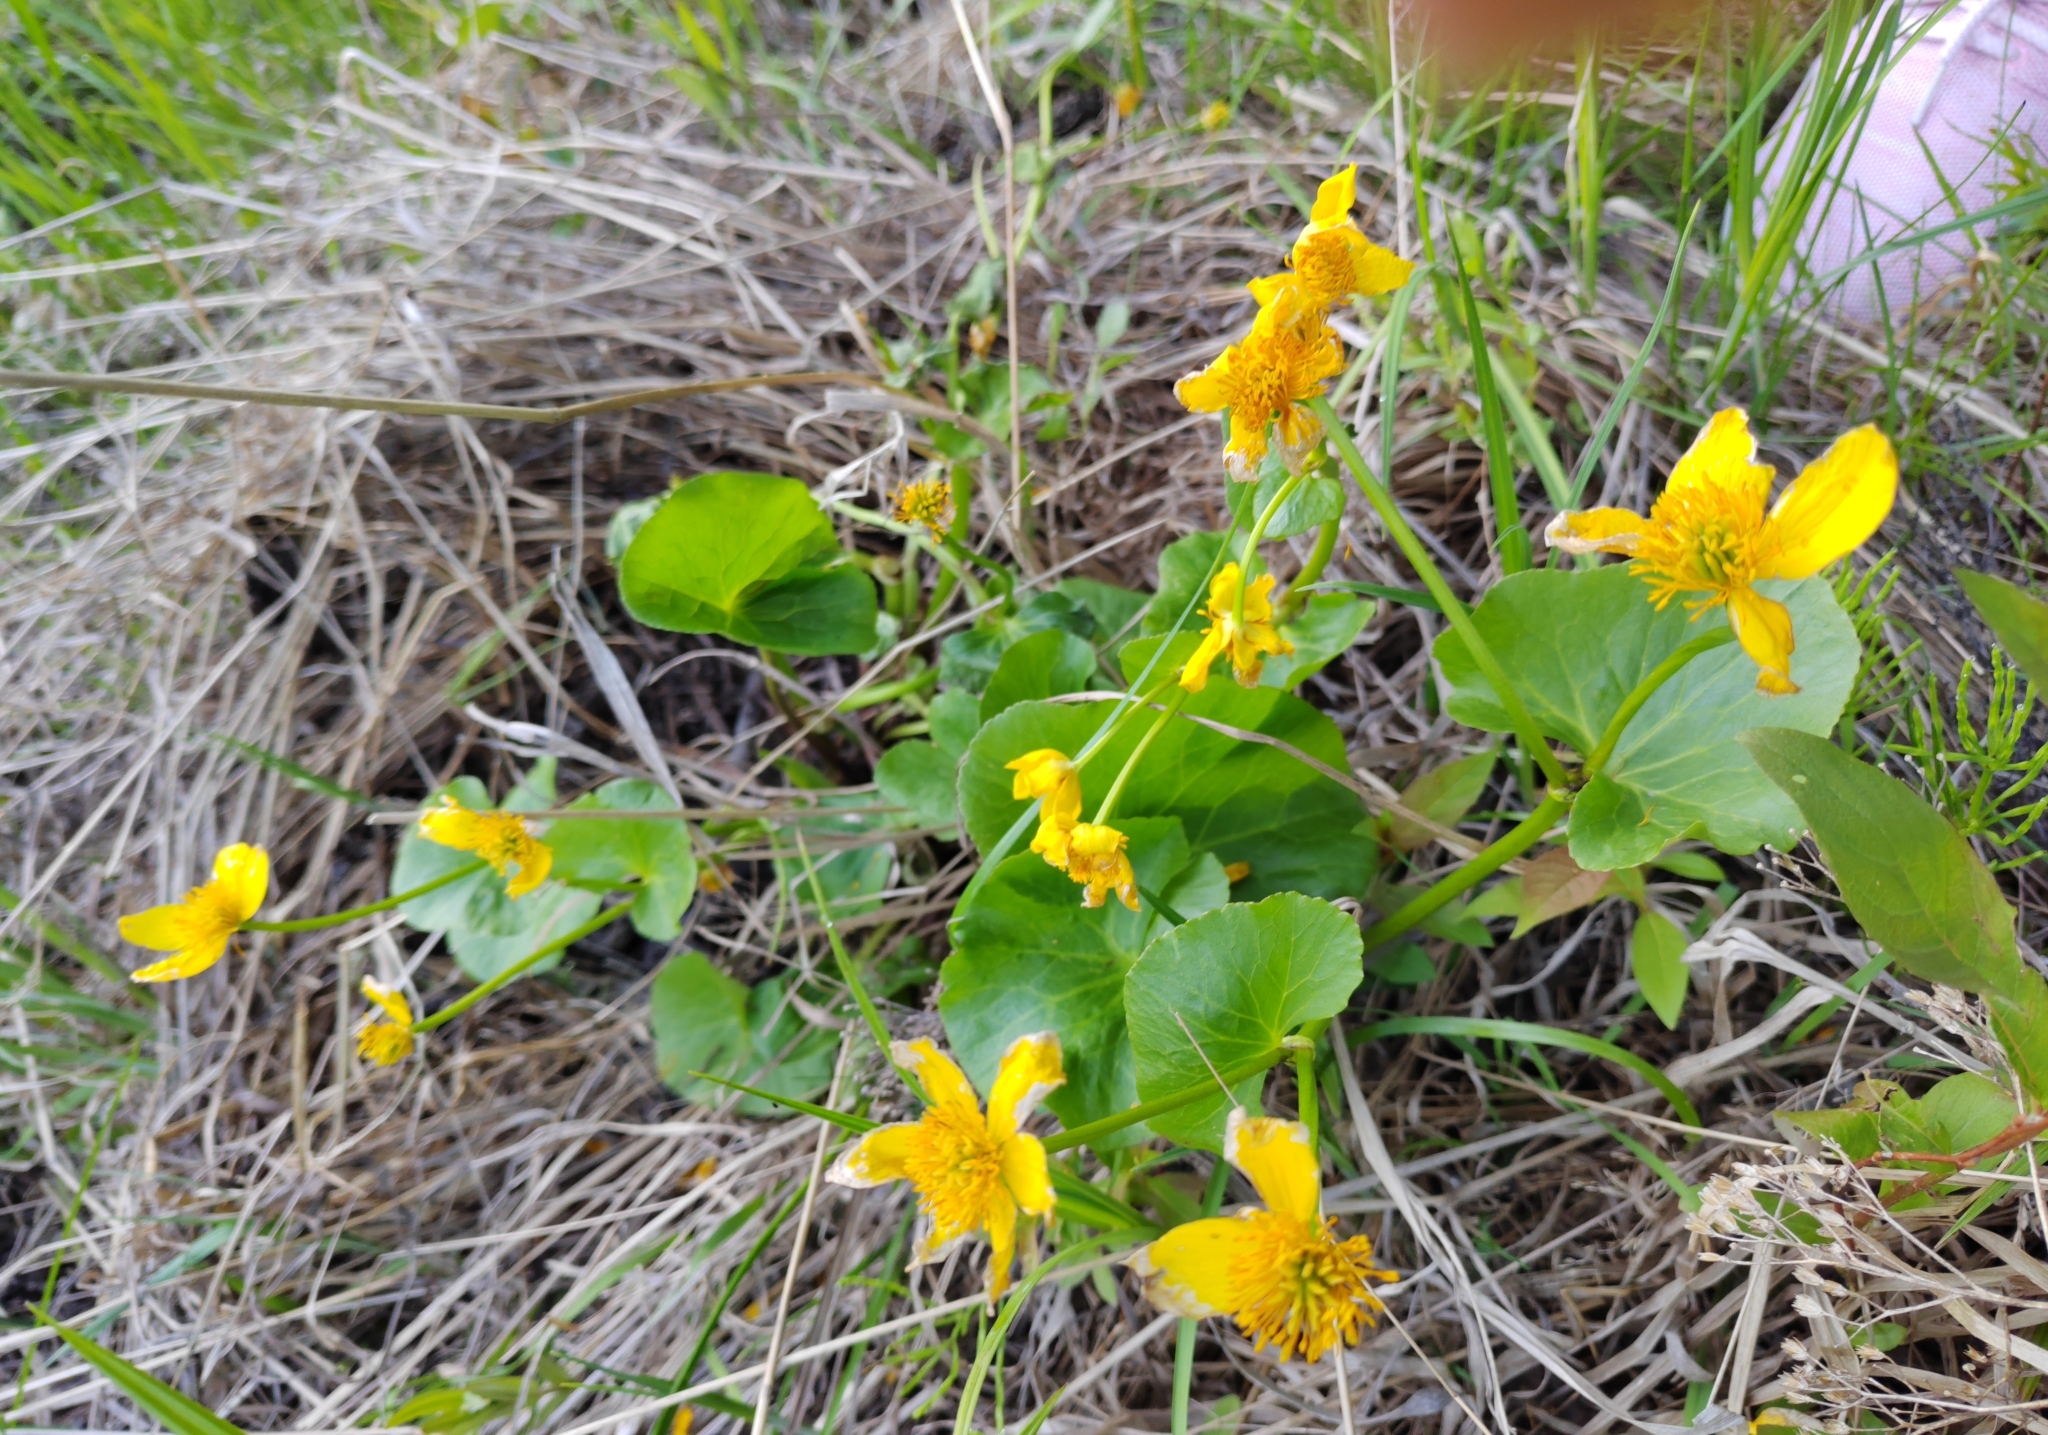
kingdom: Plantae
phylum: Tracheophyta
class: Magnoliopsida
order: Ranunculales
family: Ranunculaceae
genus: Caltha
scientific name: Caltha palustris
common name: Marsh marigold
